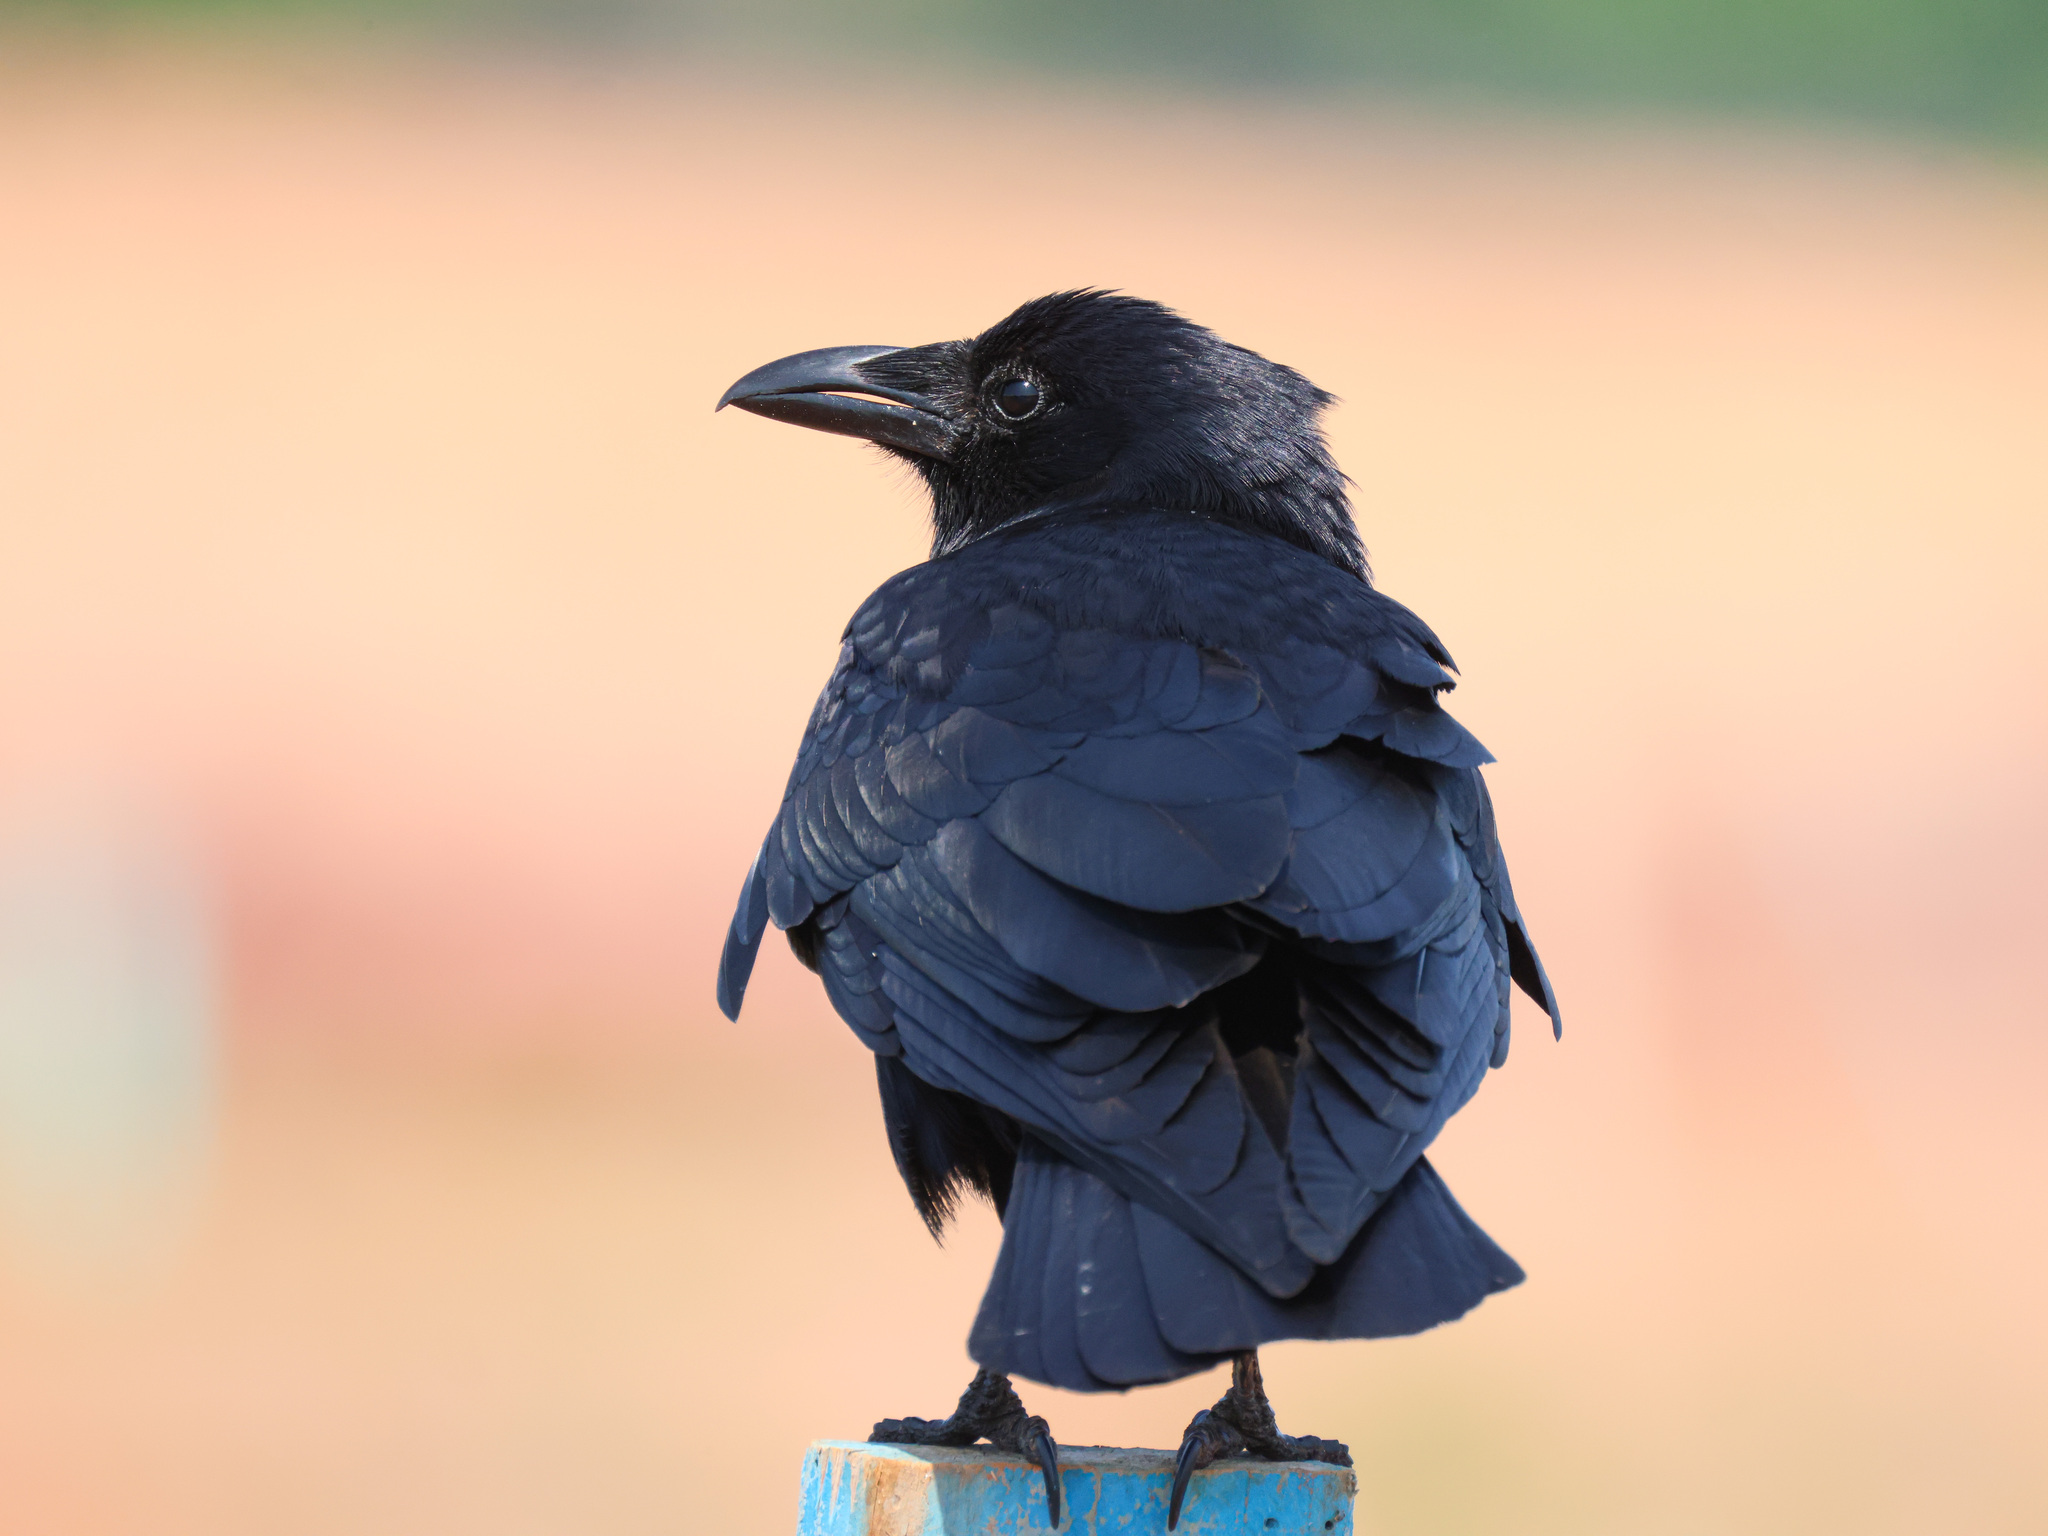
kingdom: Animalia
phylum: Chordata
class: Aves
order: Passeriformes
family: Corvidae
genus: Corvus
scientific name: Corvus ossifragus
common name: Fish crow
